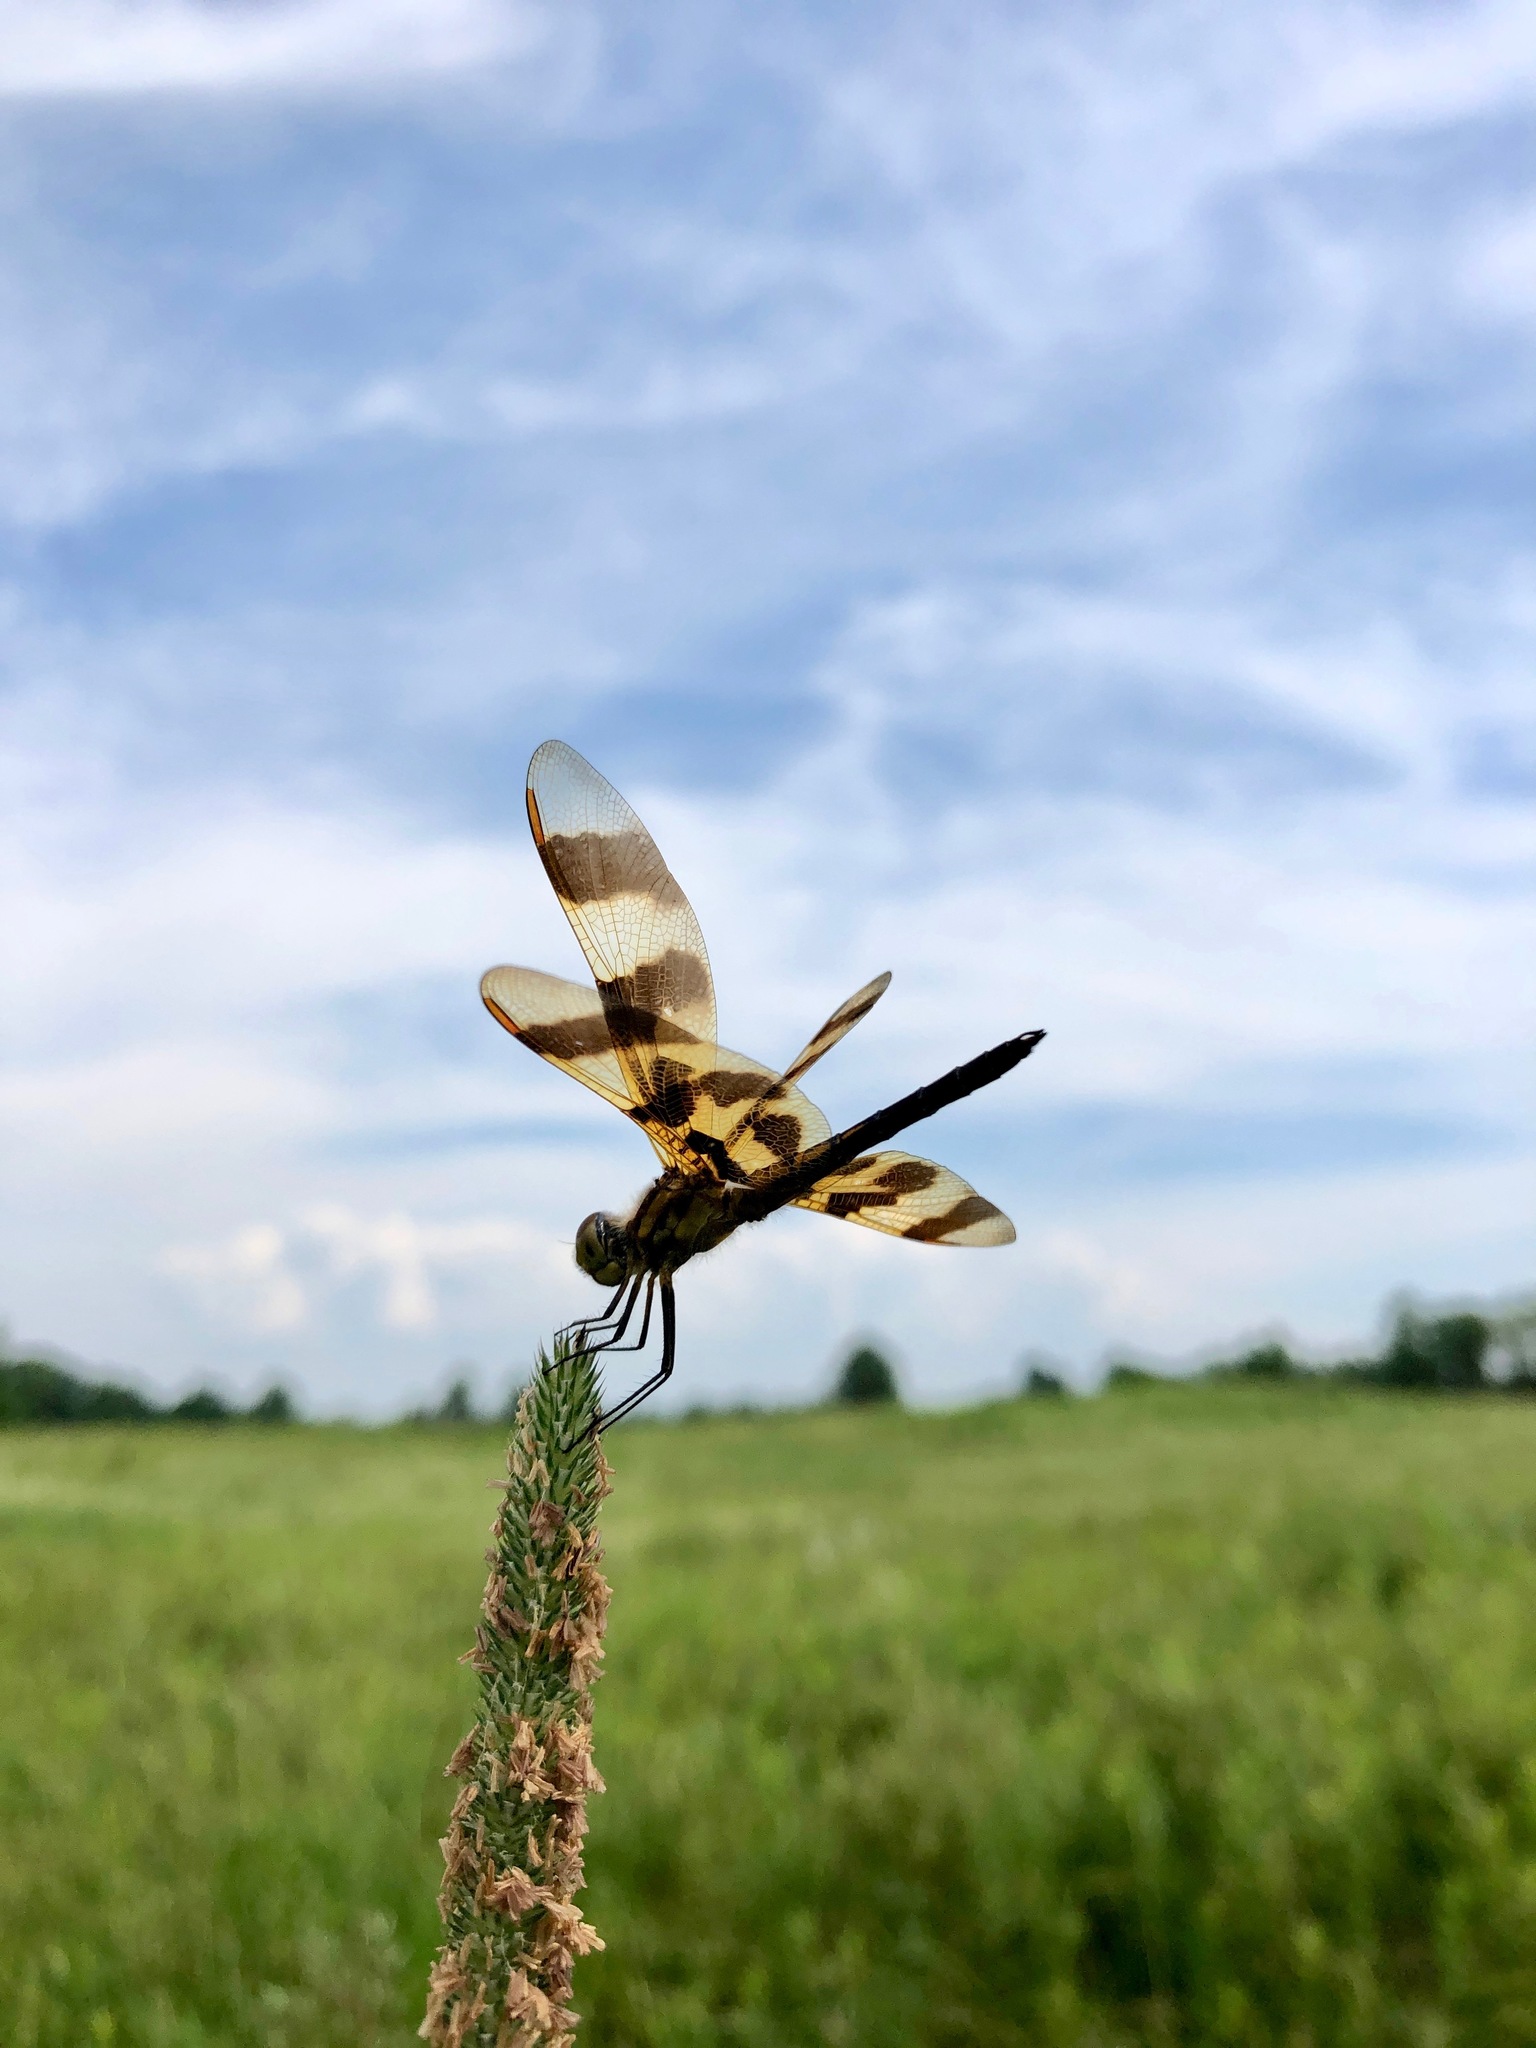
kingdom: Animalia
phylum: Arthropoda
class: Insecta
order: Odonata
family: Libellulidae
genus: Celithemis
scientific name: Celithemis eponina
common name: Halloween pennant
